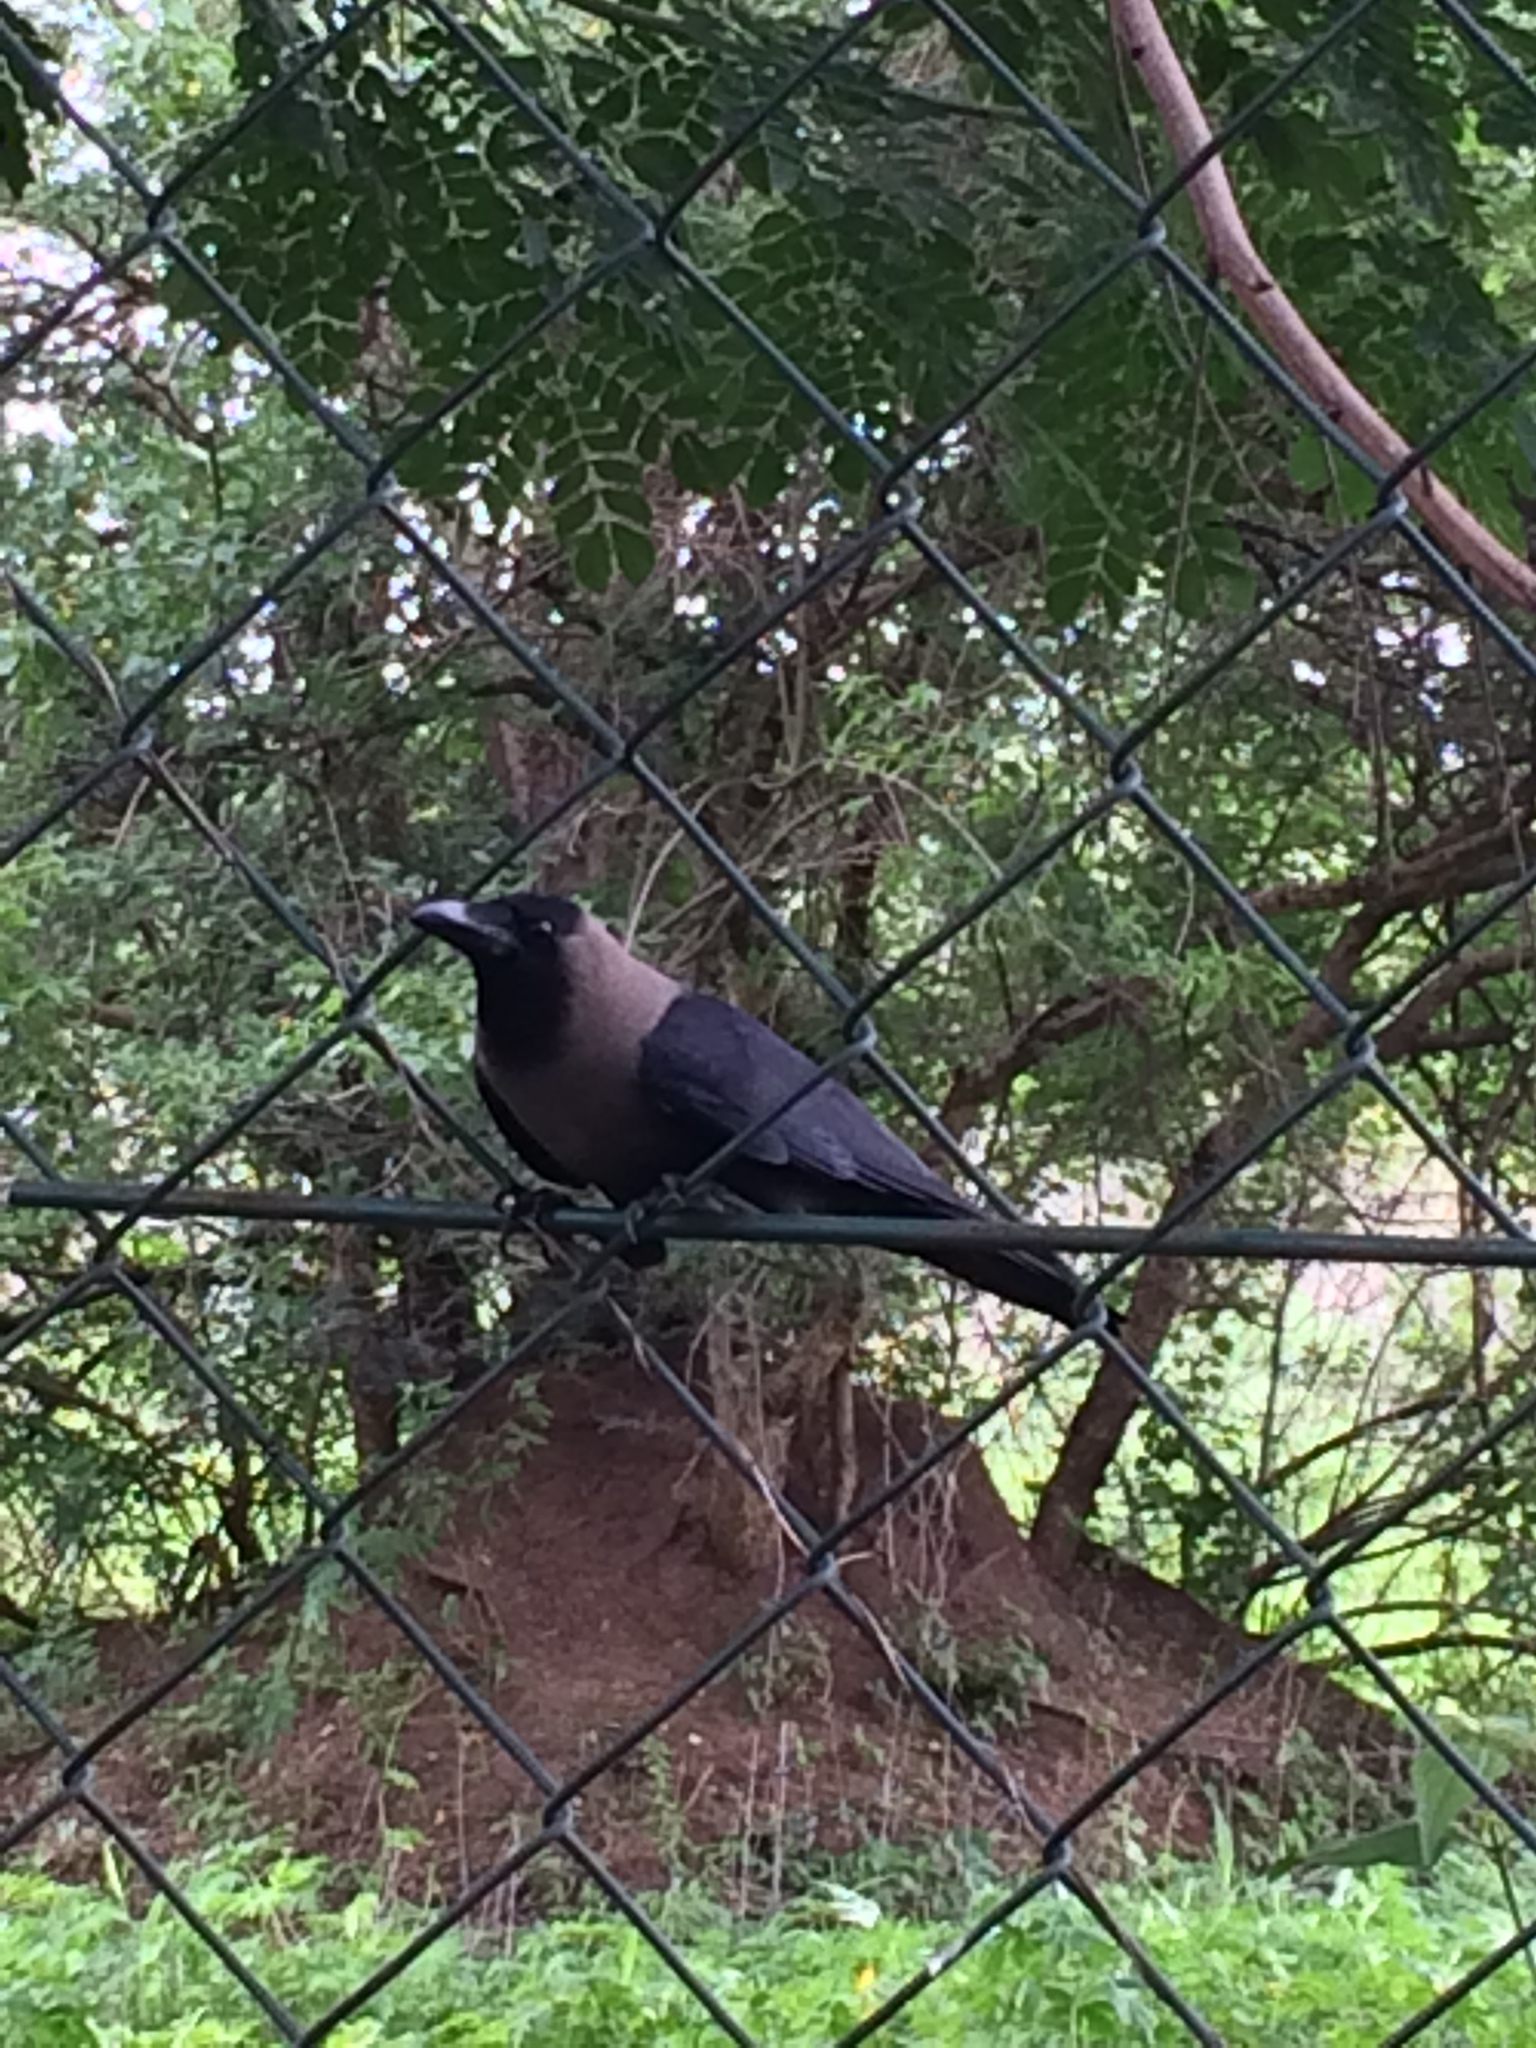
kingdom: Animalia
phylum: Chordata
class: Aves
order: Passeriformes
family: Corvidae
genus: Corvus
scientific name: Corvus splendens
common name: House crow
